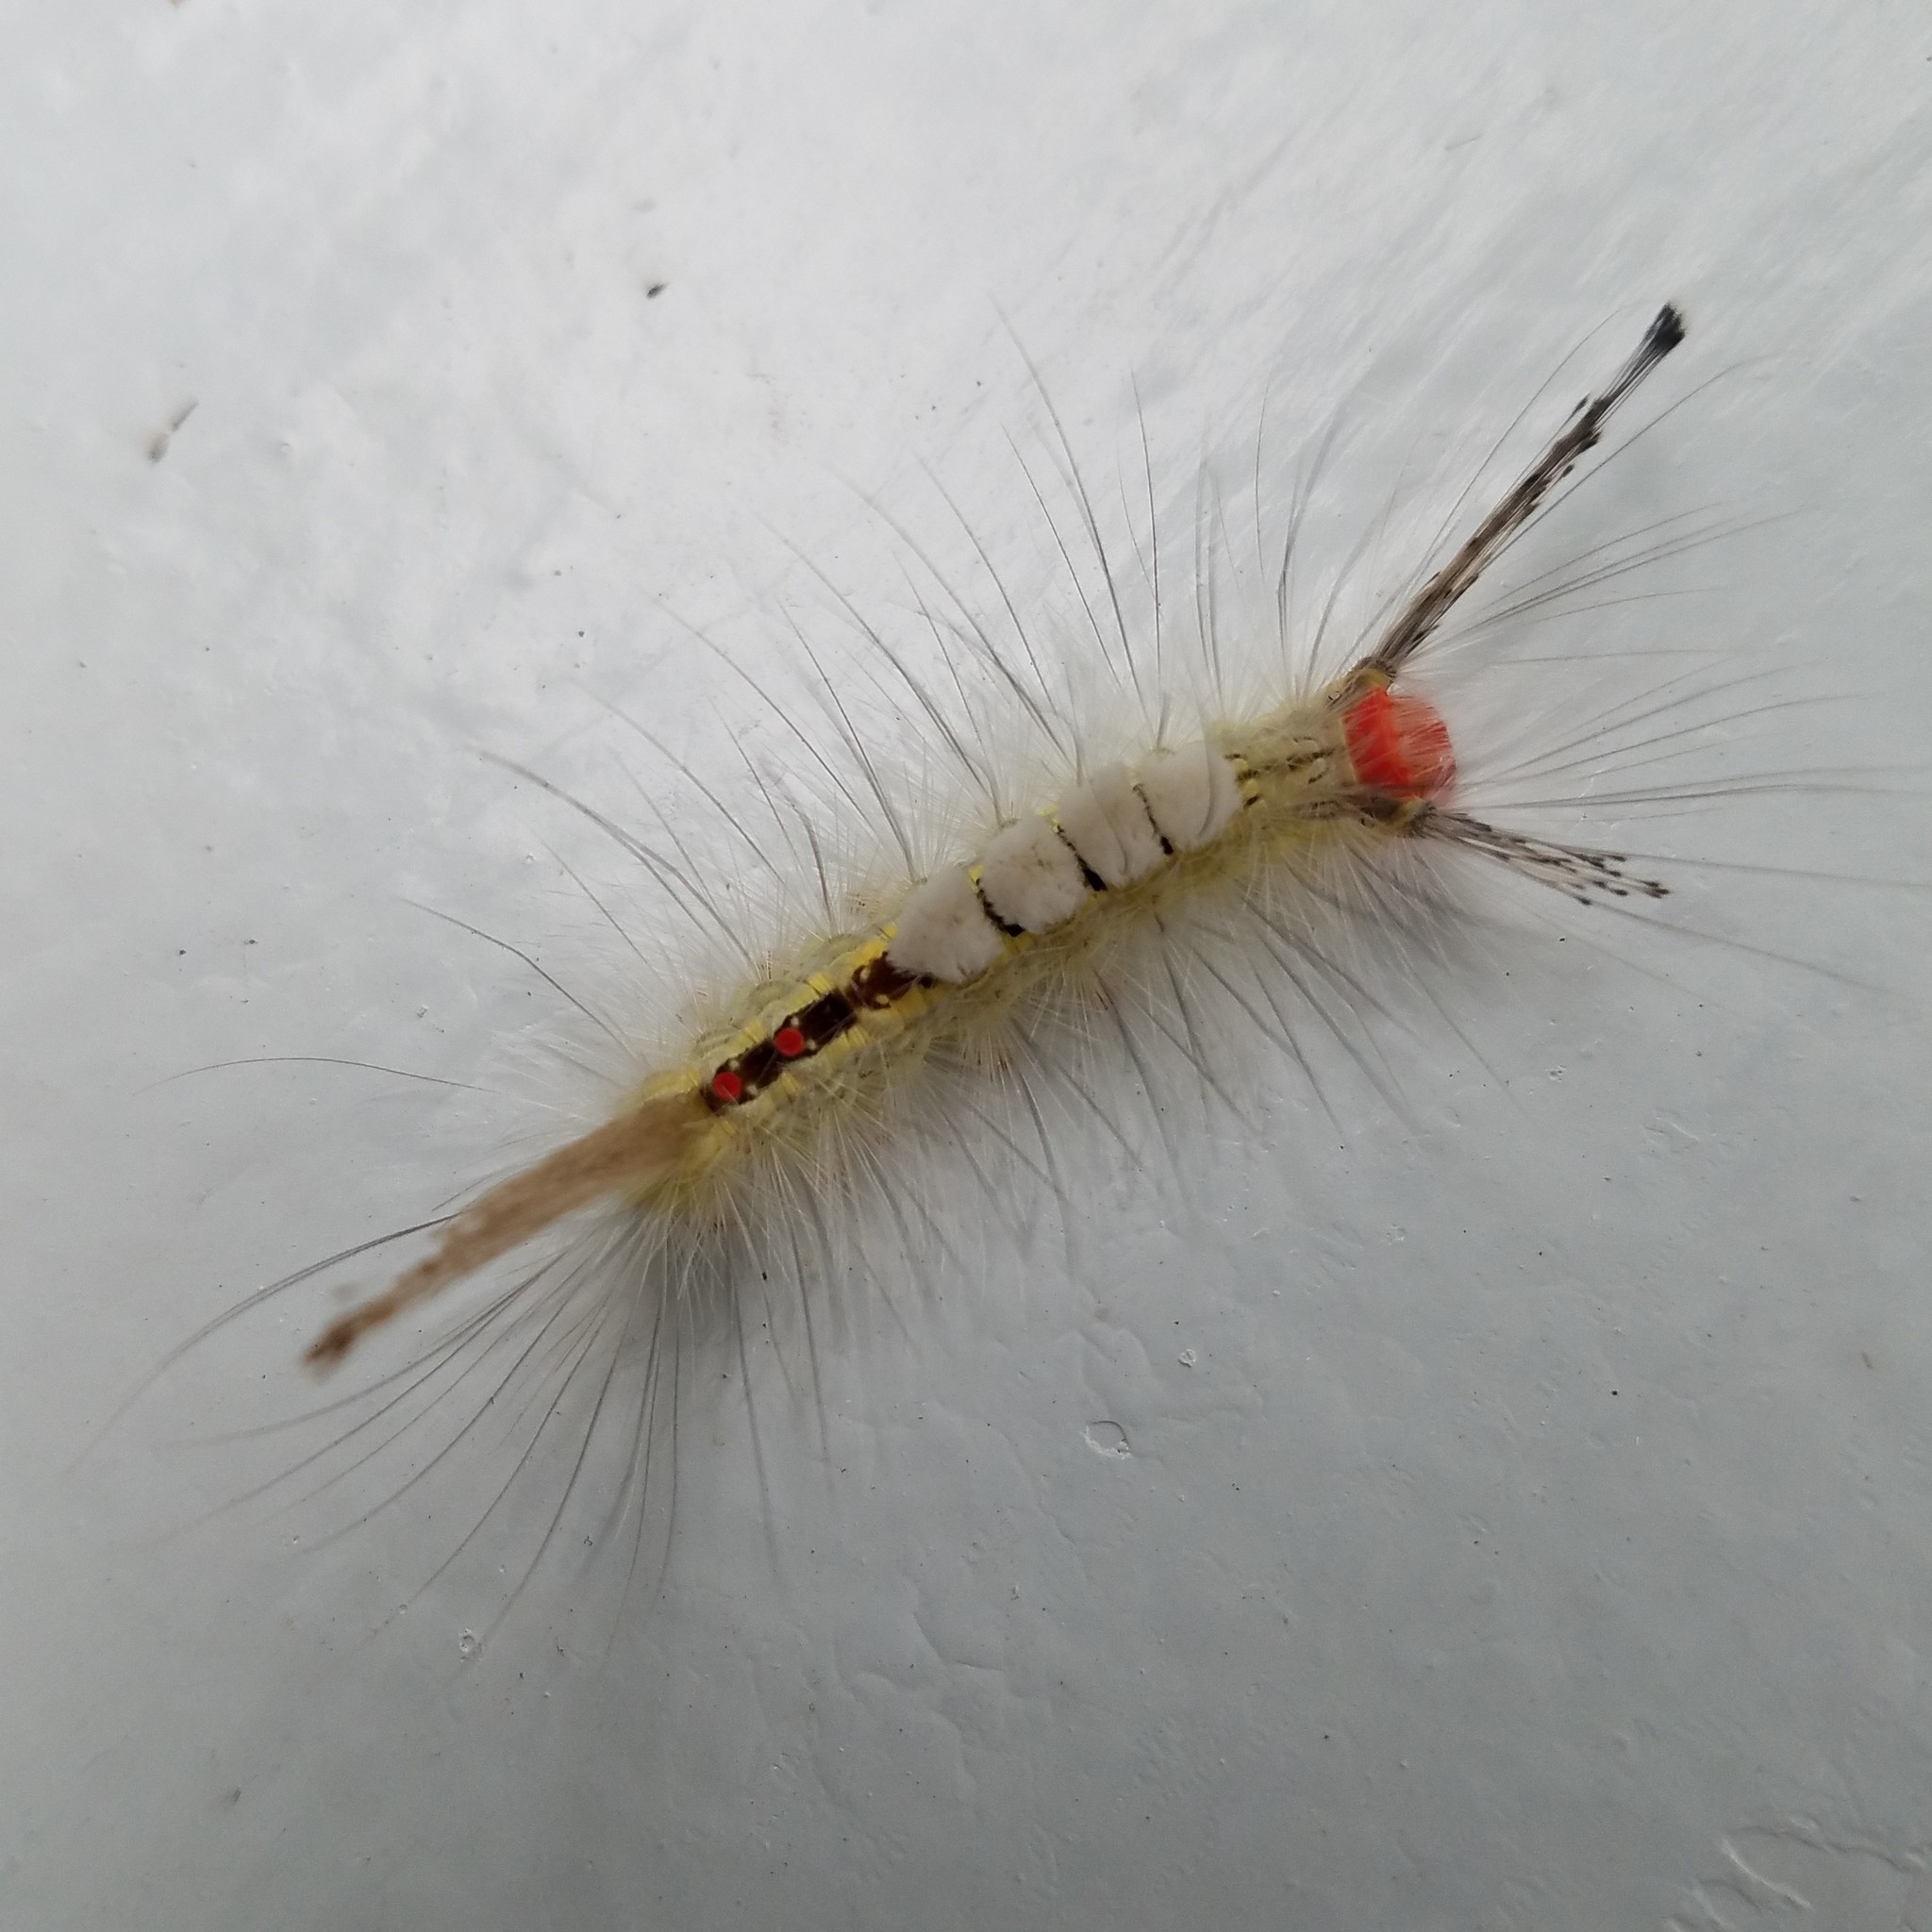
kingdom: Animalia
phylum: Arthropoda
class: Insecta
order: Lepidoptera
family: Erebidae
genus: Orgyia
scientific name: Orgyia leucostigma
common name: White-marked tussock moth
